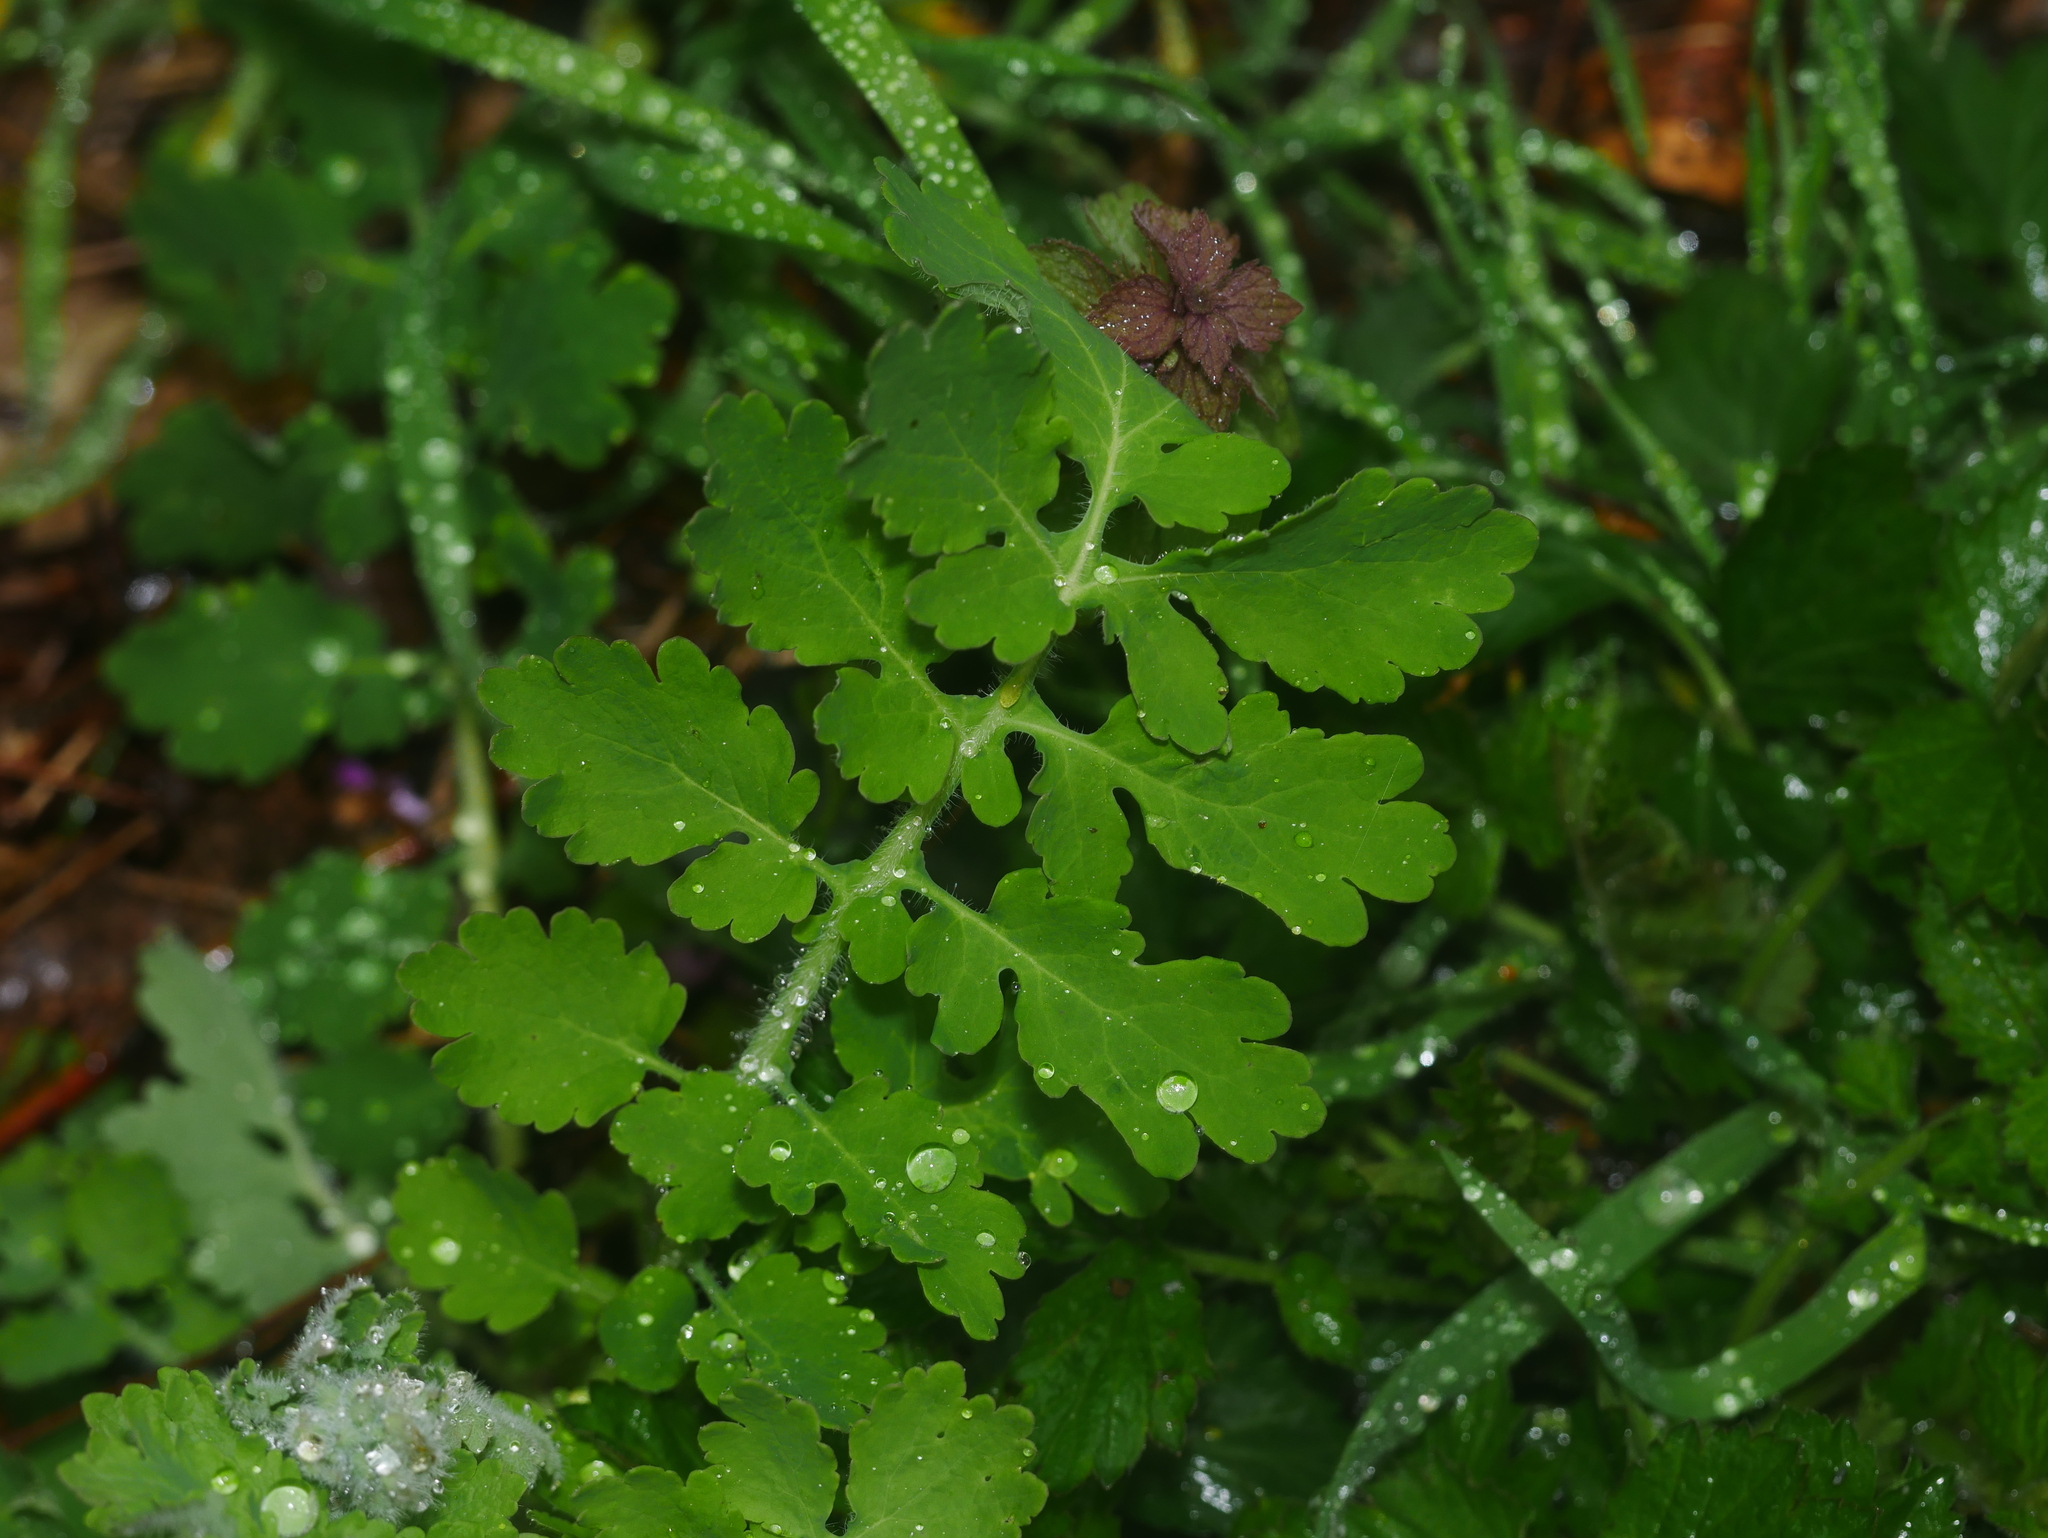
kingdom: Plantae
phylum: Tracheophyta
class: Magnoliopsida
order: Ranunculales
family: Papaveraceae
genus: Chelidonium
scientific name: Chelidonium majus
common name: Greater celandine
